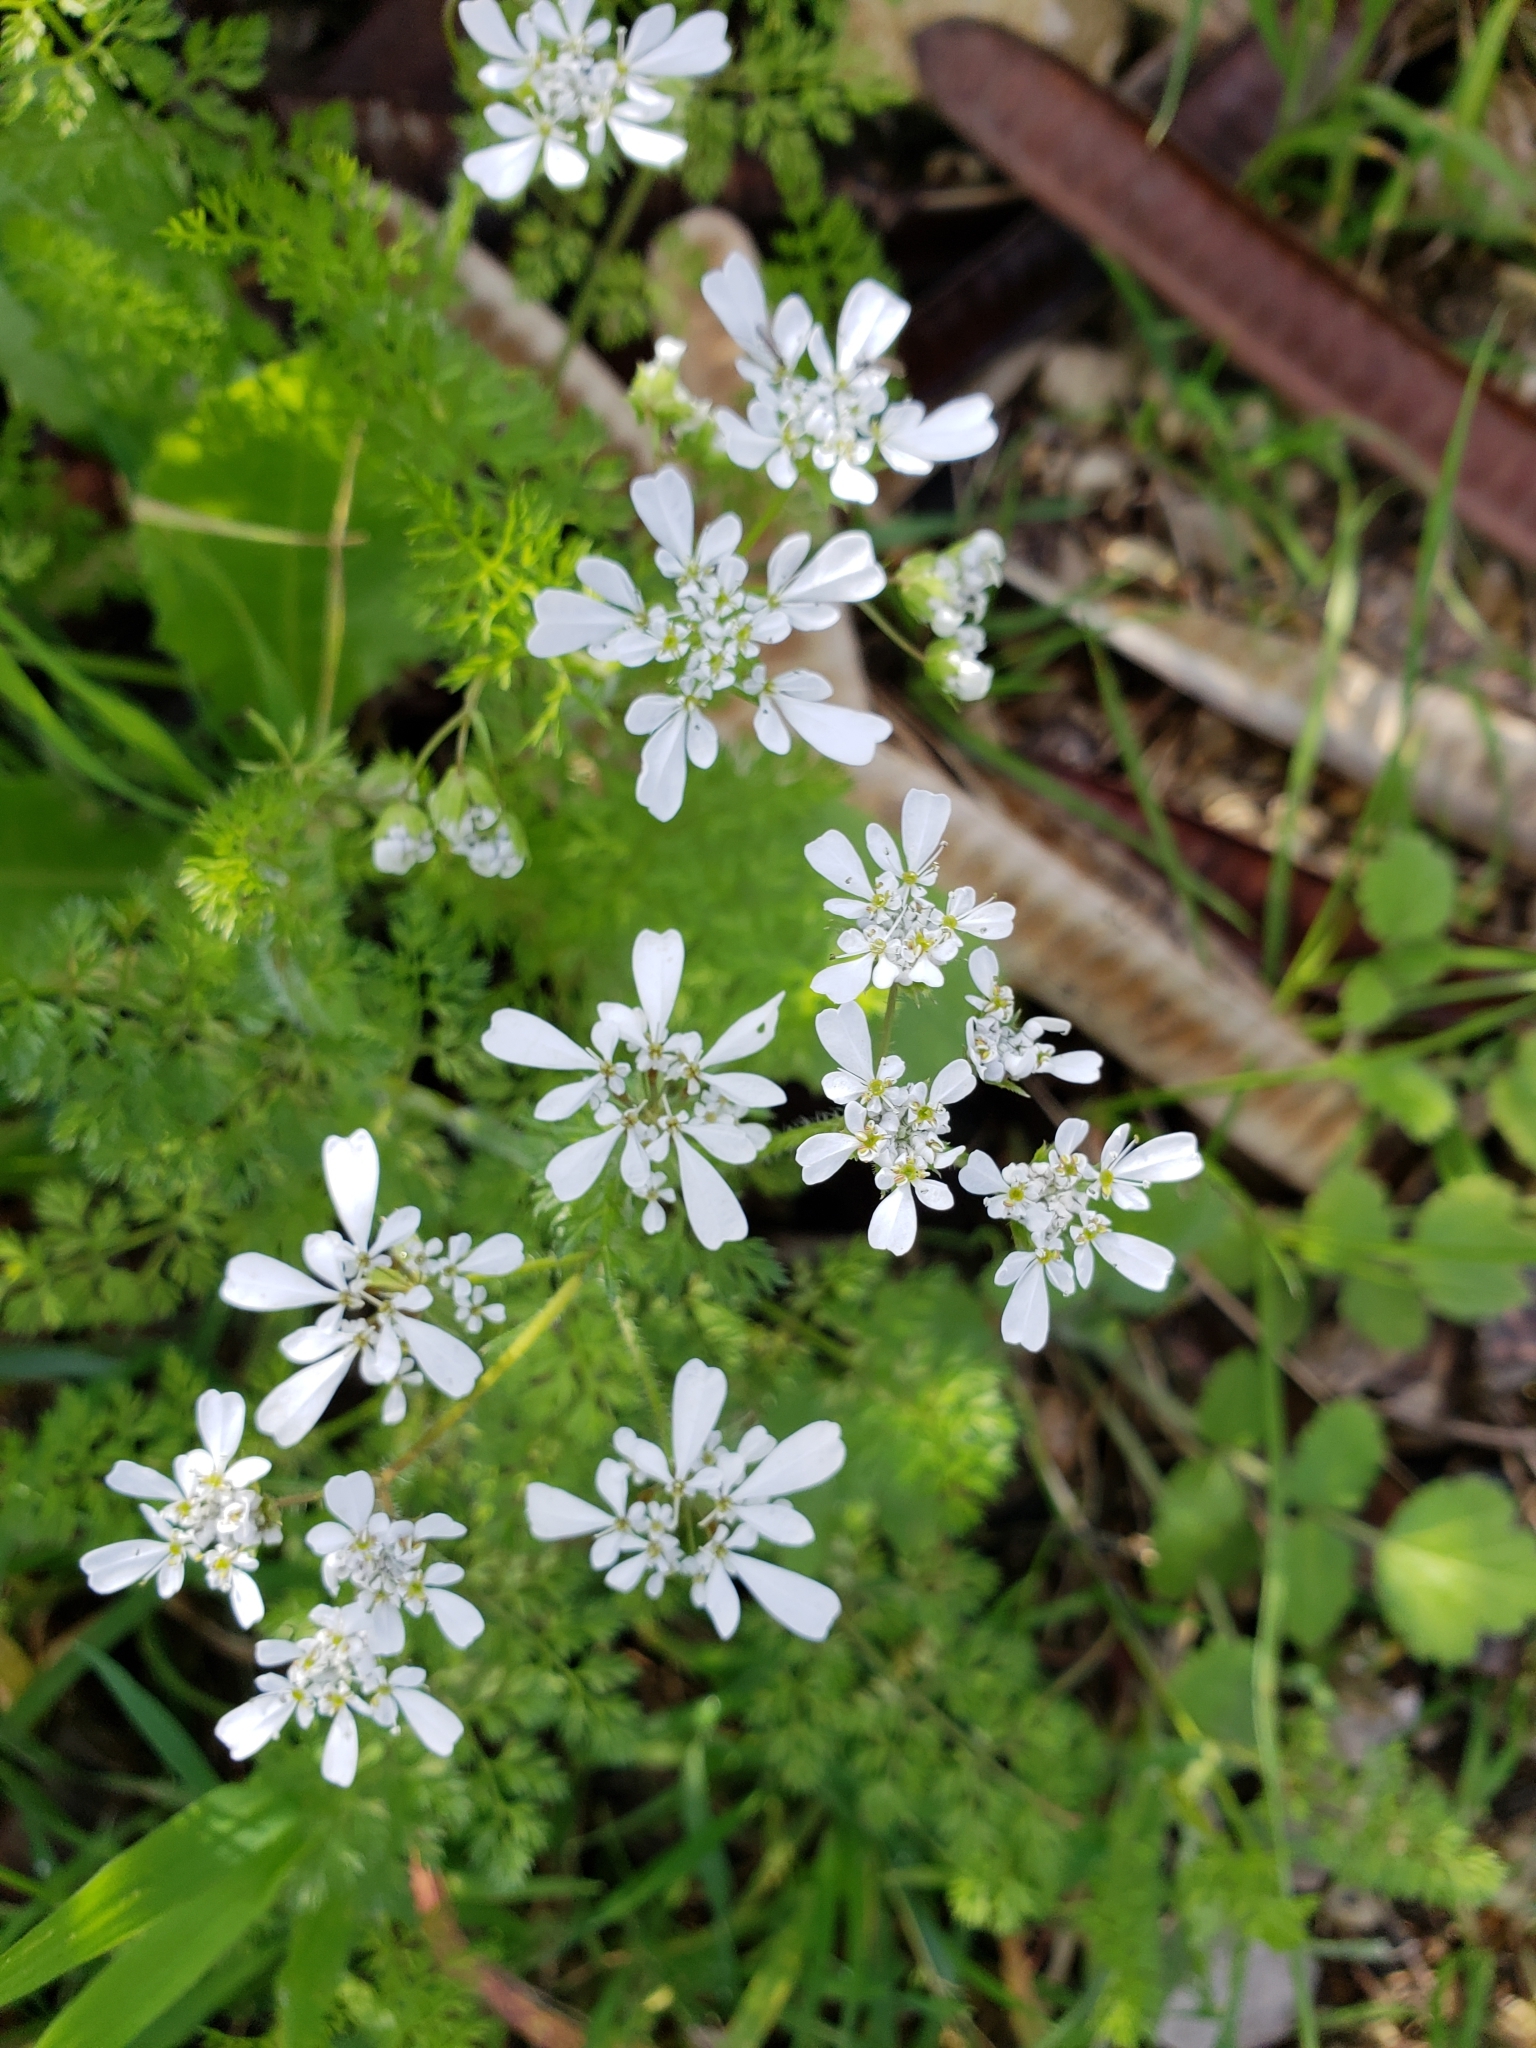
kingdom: Plantae
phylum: Tracheophyta
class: Magnoliopsida
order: Apiales
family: Apiaceae
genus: Scandix
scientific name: Scandix verna
